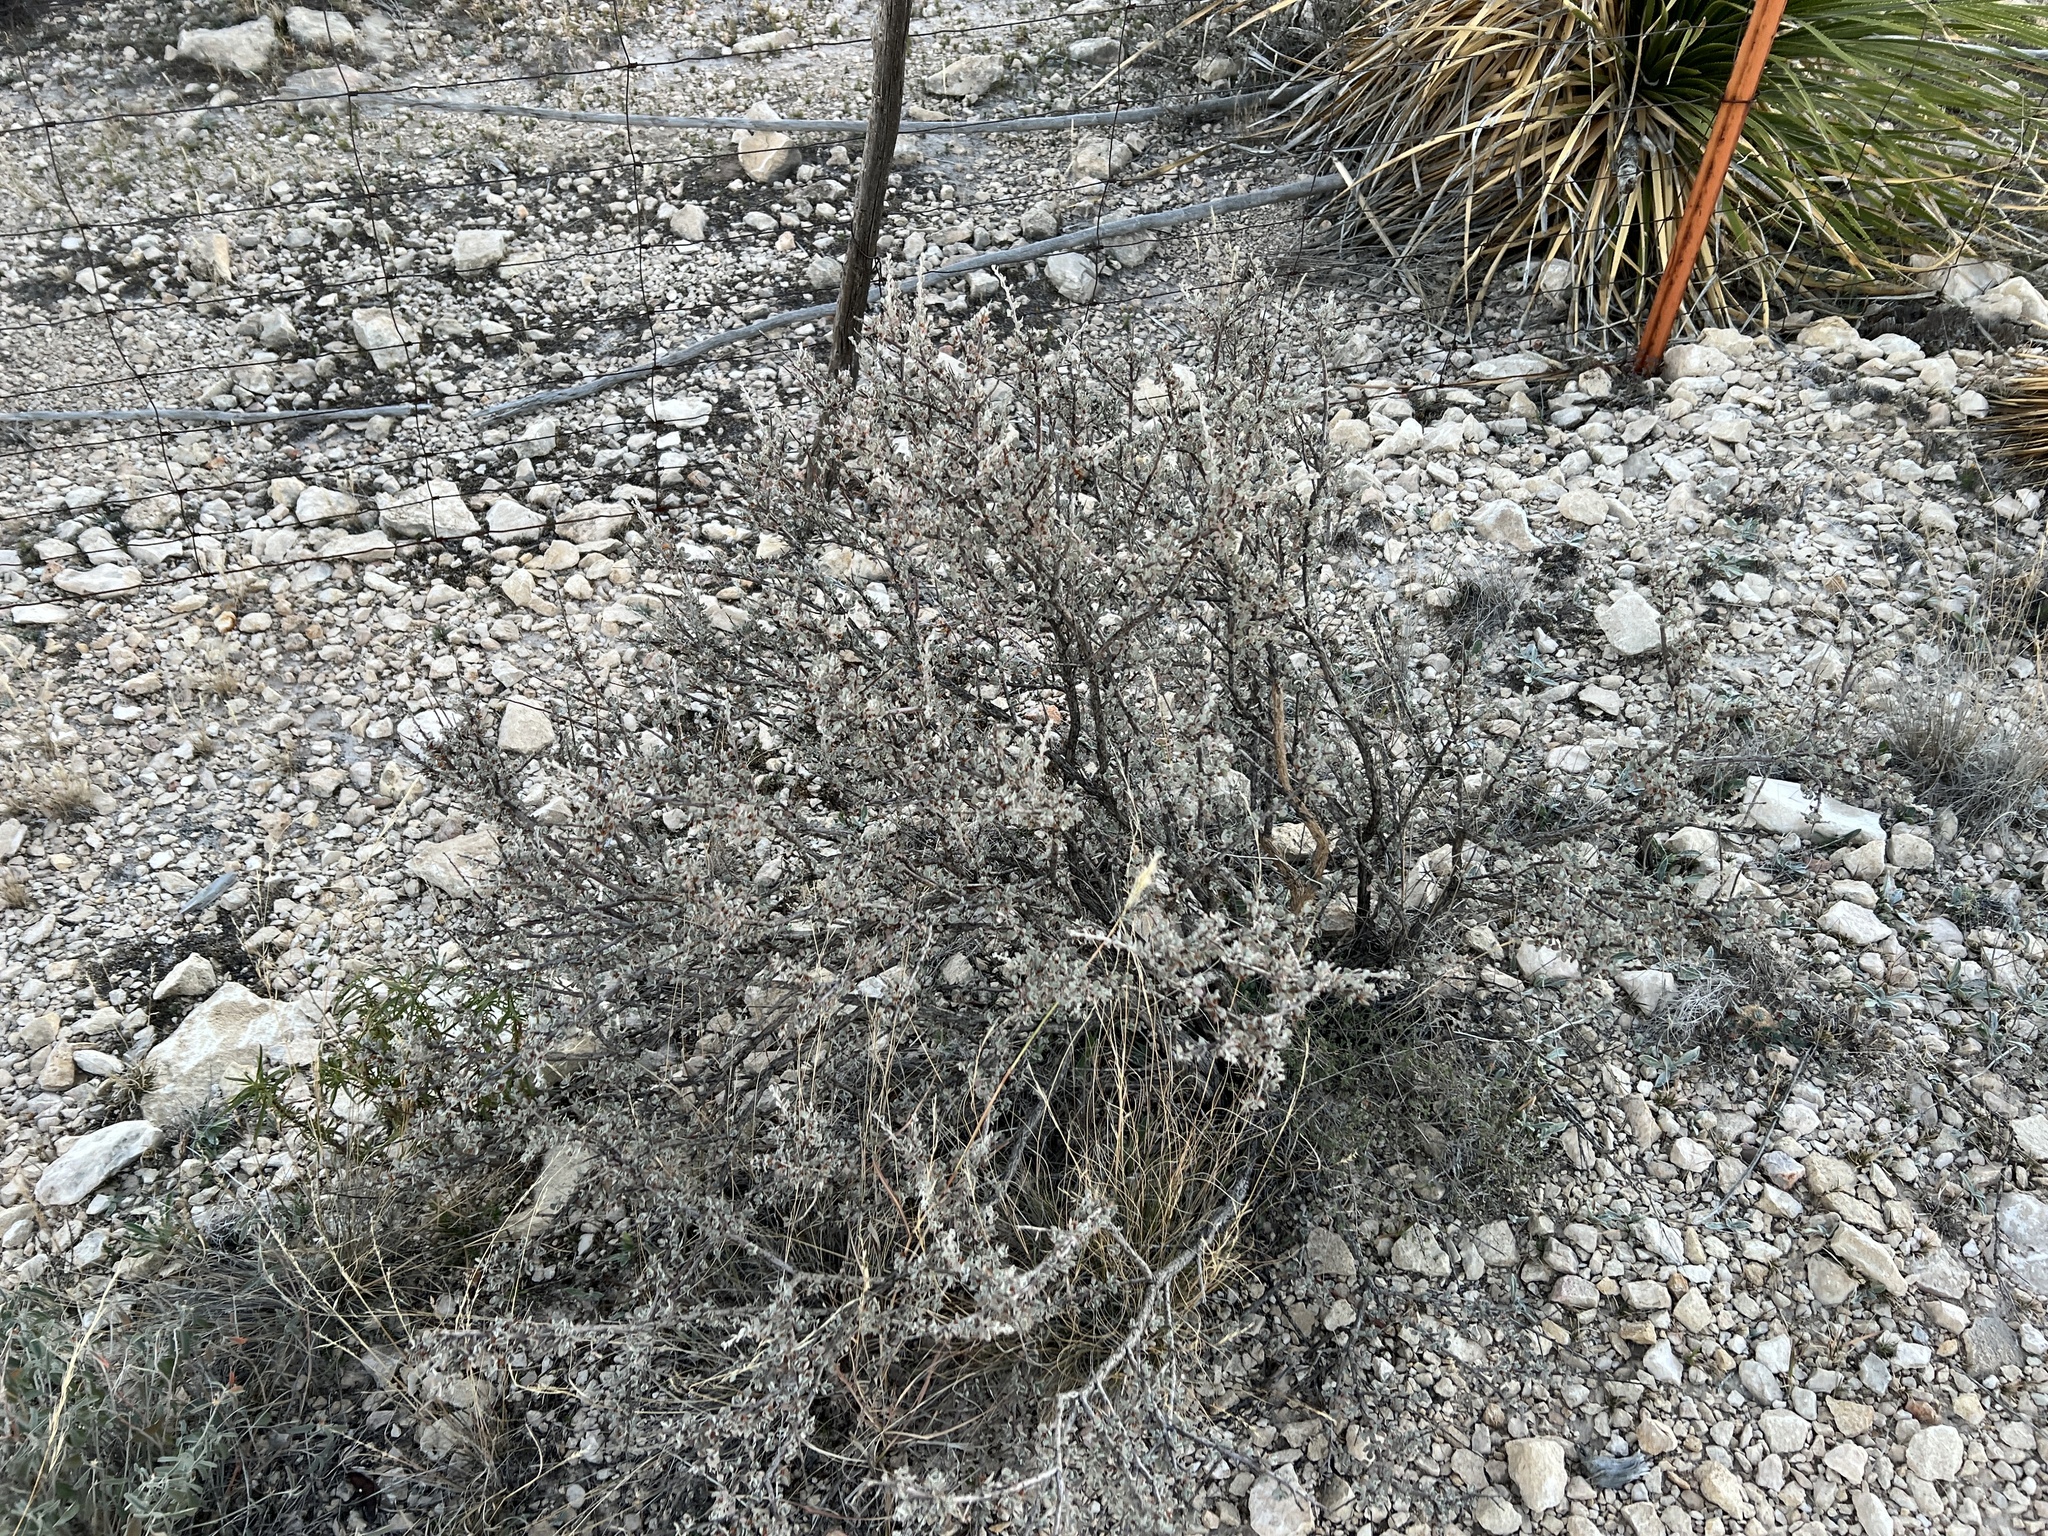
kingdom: Plantae
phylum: Tracheophyta
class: Magnoliopsida
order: Lamiales
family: Scrophulariaceae
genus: Leucophyllum
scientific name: Leucophyllum minus
